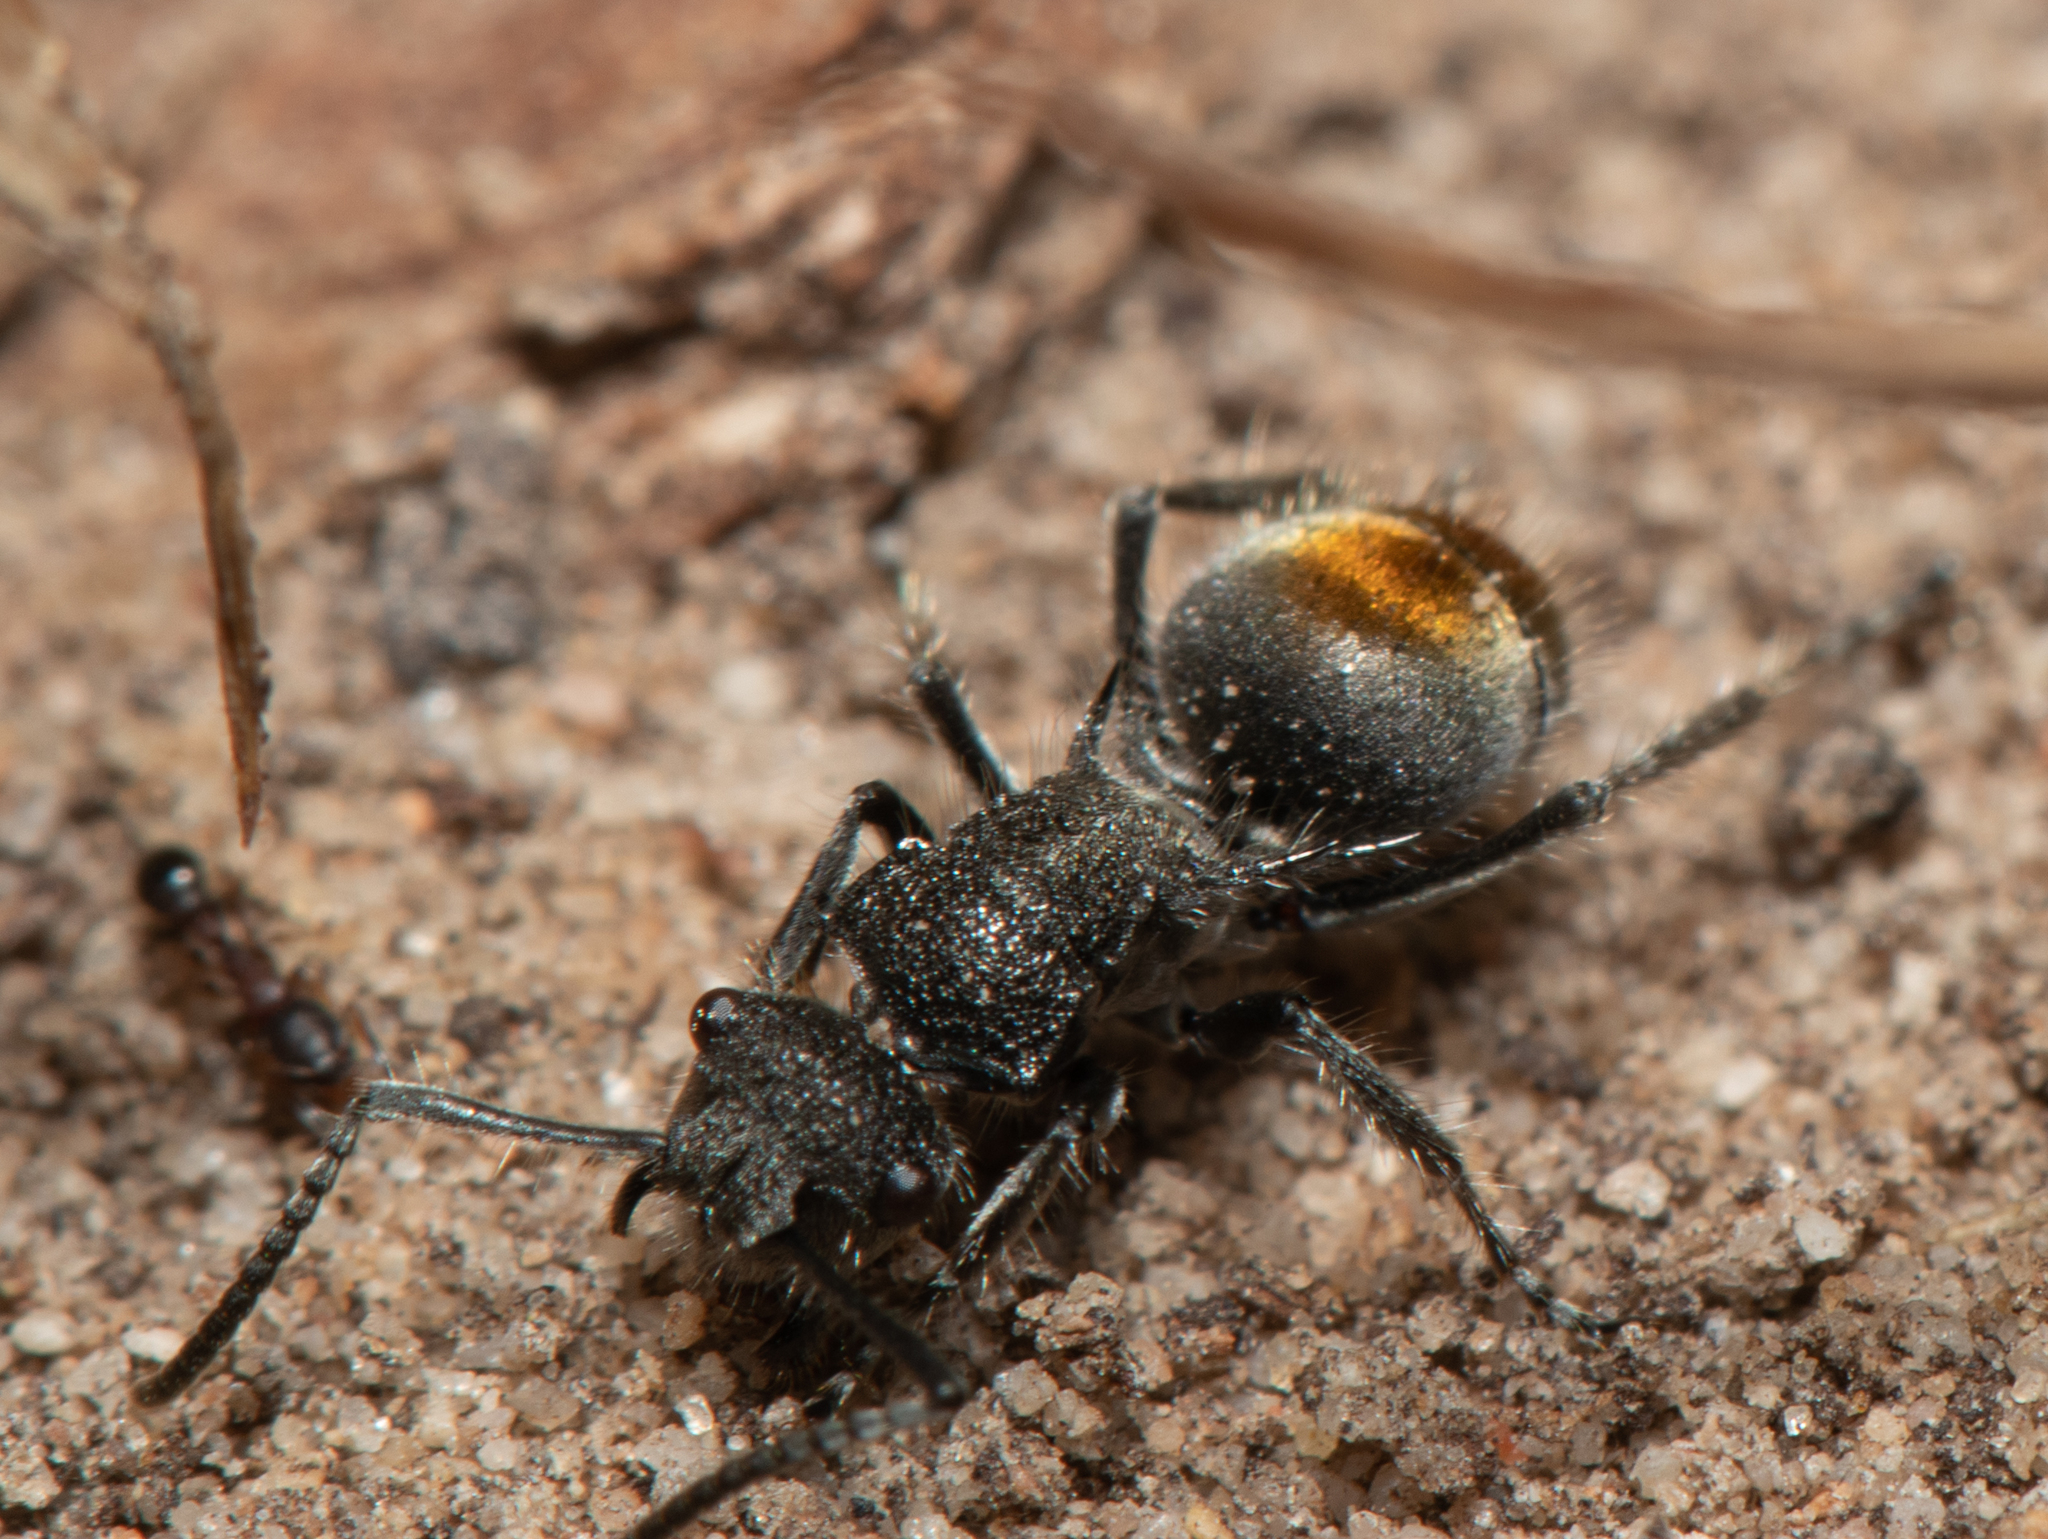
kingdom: Animalia
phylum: Arthropoda
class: Insecta
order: Hymenoptera
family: Formicidae
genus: Polyrhachis
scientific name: Polyrhachis vermiculosa
